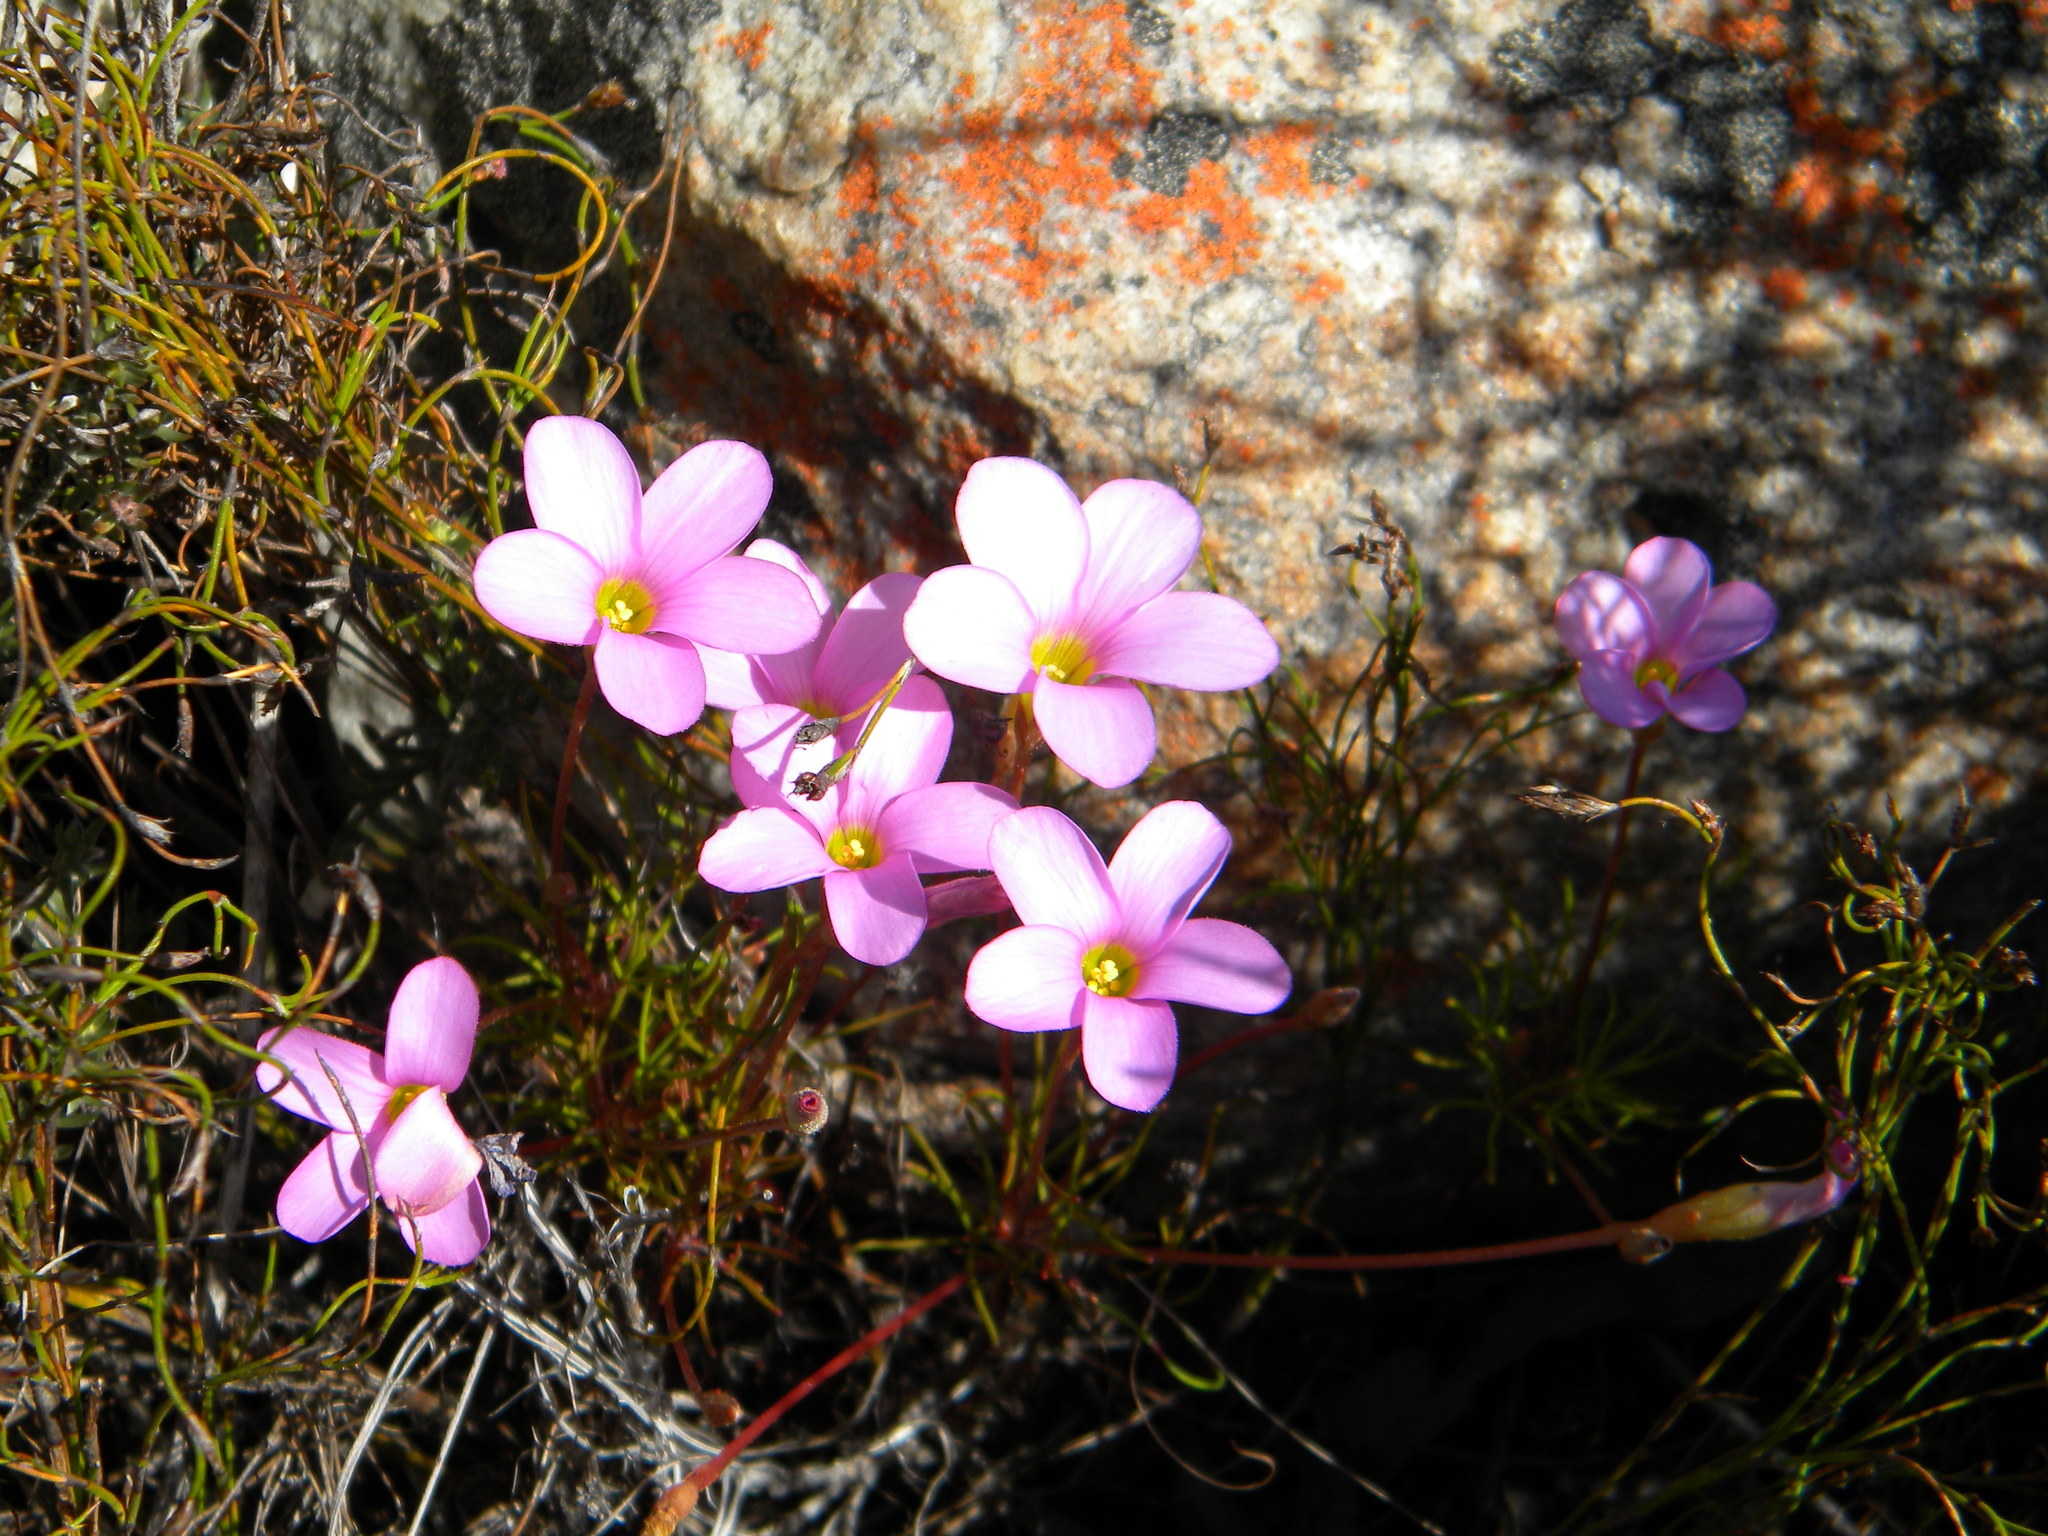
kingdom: Plantae
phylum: Tracheophyta
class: Magnoliopsida
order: Oxalidales
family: Oxalidaceae
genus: Oxalis
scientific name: Oxalis polyphylla
